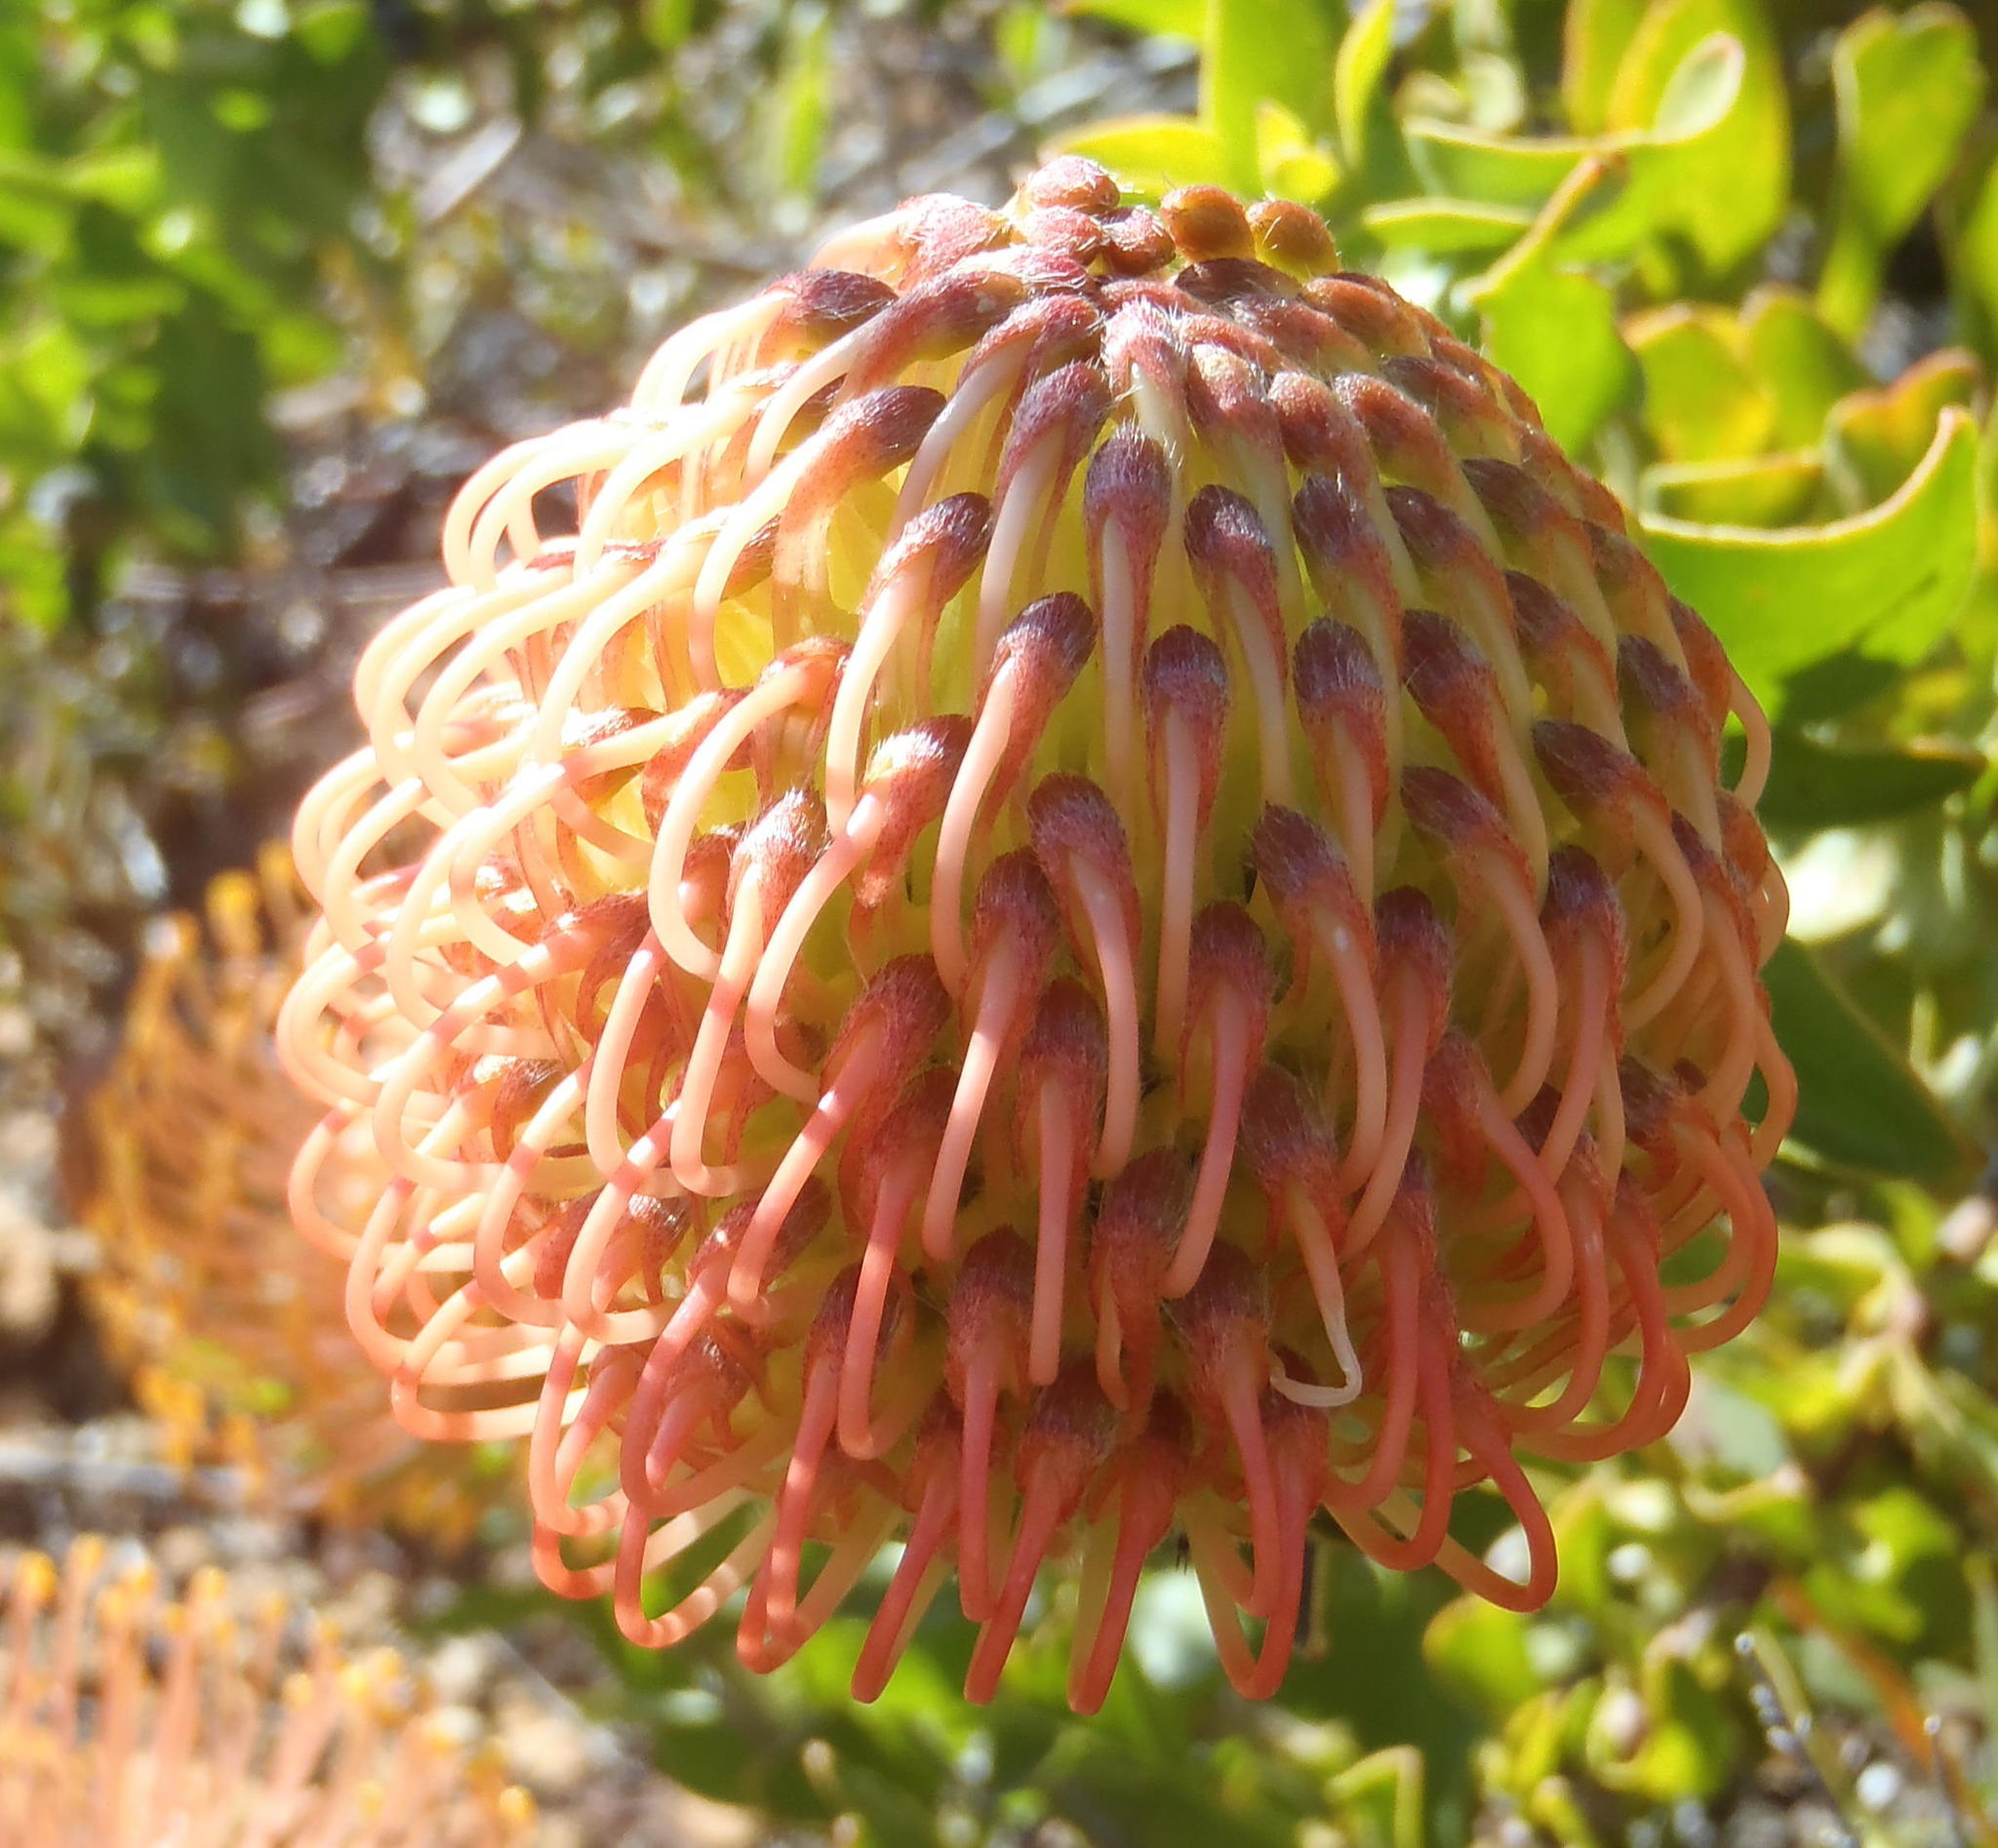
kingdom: Plantae
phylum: Tracheophyta
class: Magnoliopsida
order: Proteales
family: Proteaceae
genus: Leucospermum
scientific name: Leucospermum cordifolium
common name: Red pincushion-protea
